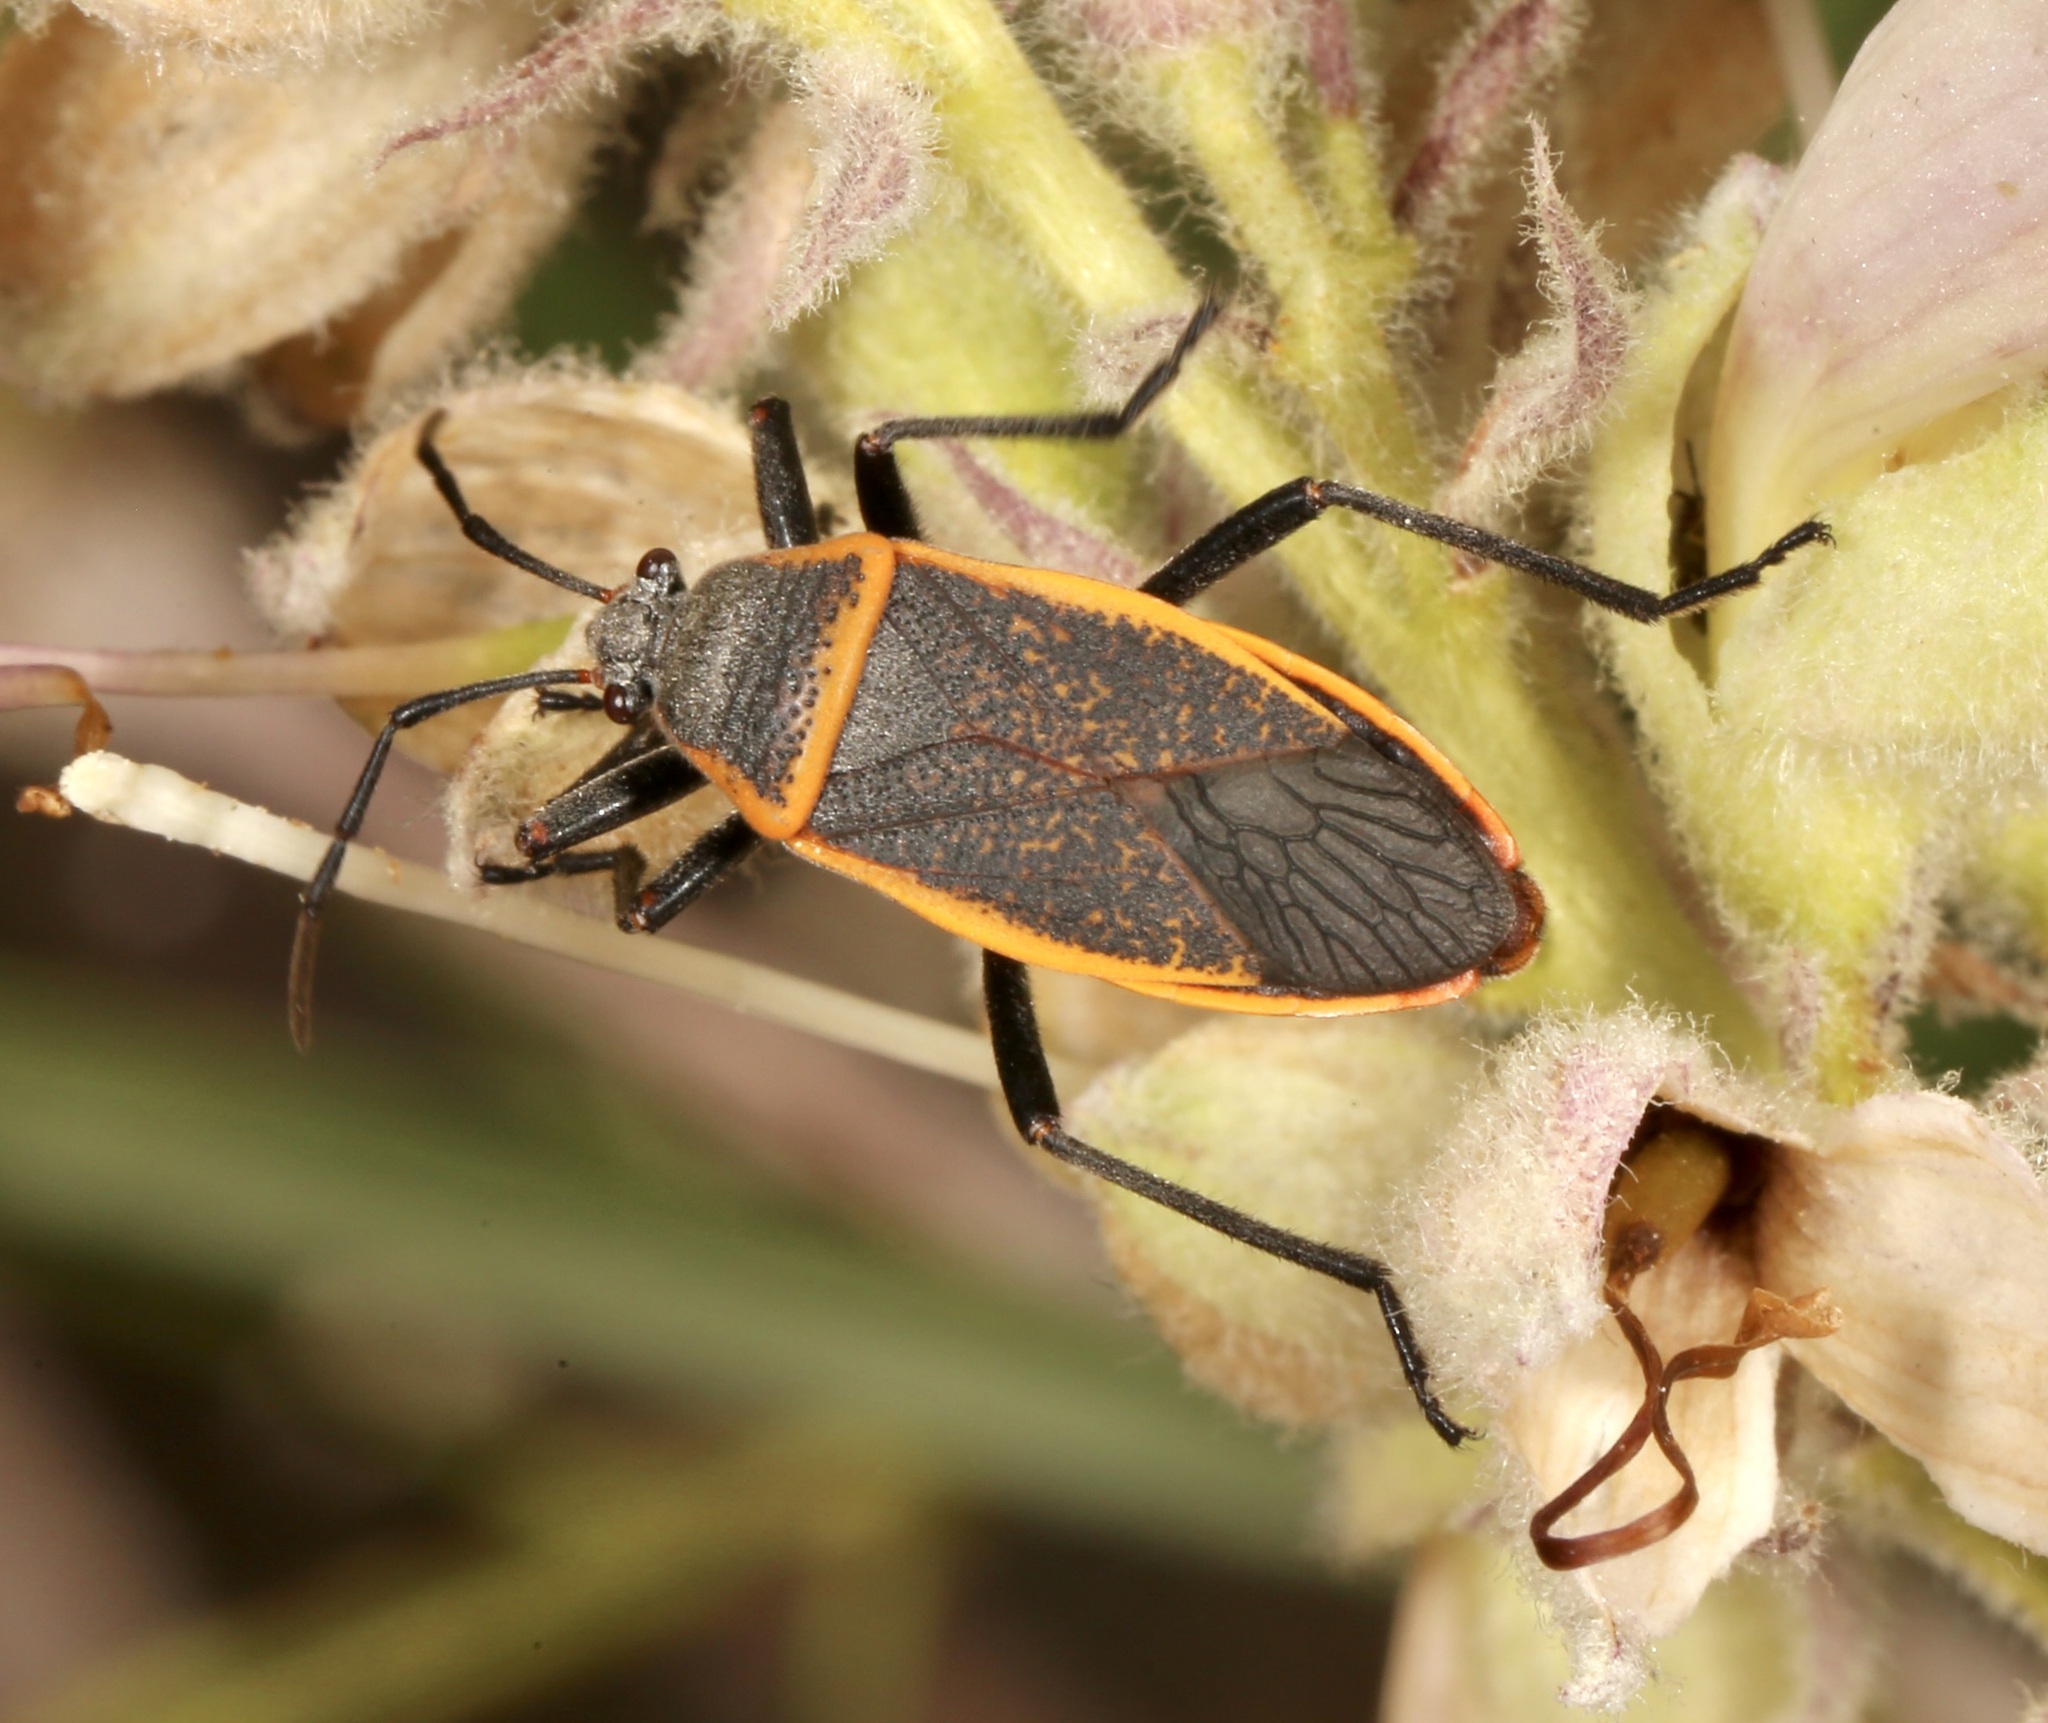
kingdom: Animalia
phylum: Arthropoda
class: Insecta
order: Hemiptera
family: Largidae
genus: Largus
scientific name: Largus californicus
